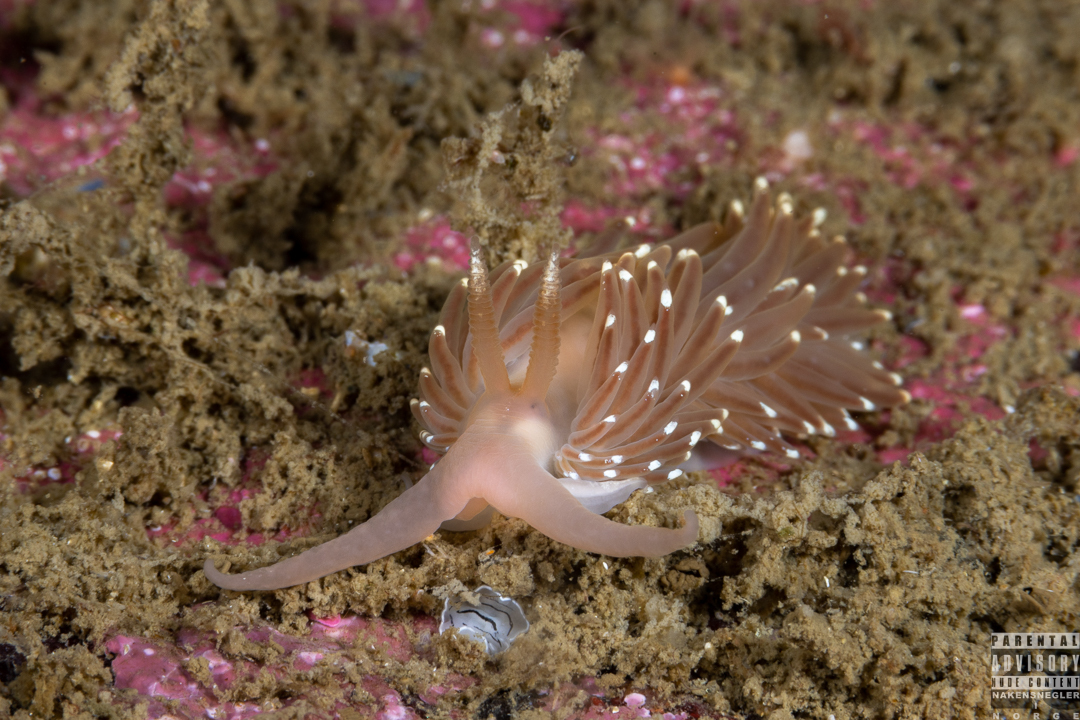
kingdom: Animalia
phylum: Mollusca
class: Gastropoda
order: Nudibranchia
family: Facelinidae
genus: Facelina
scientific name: Facelina bostoniensis
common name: Boston facelina
